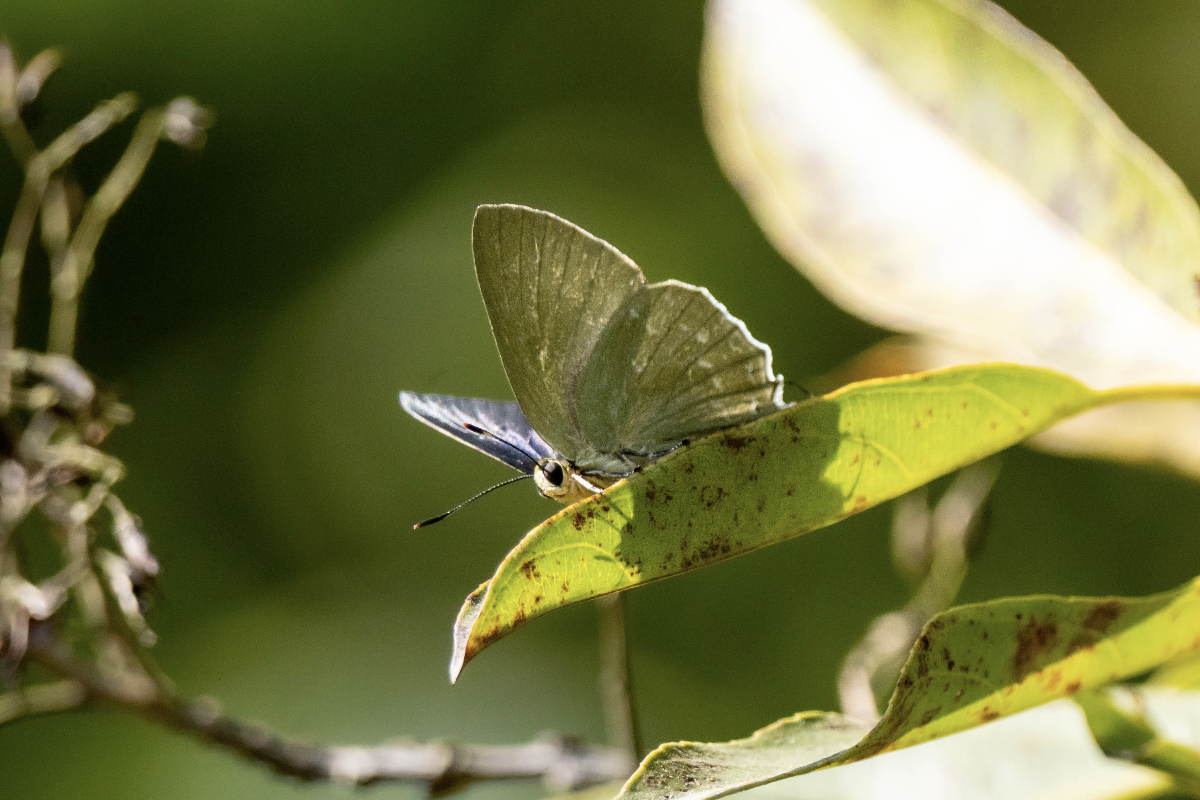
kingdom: Animalia
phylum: Arthropoda
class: Insecta
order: Lepidoptera
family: Lycaenidae
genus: Artipe
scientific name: Artipe eryx
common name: Green flash
